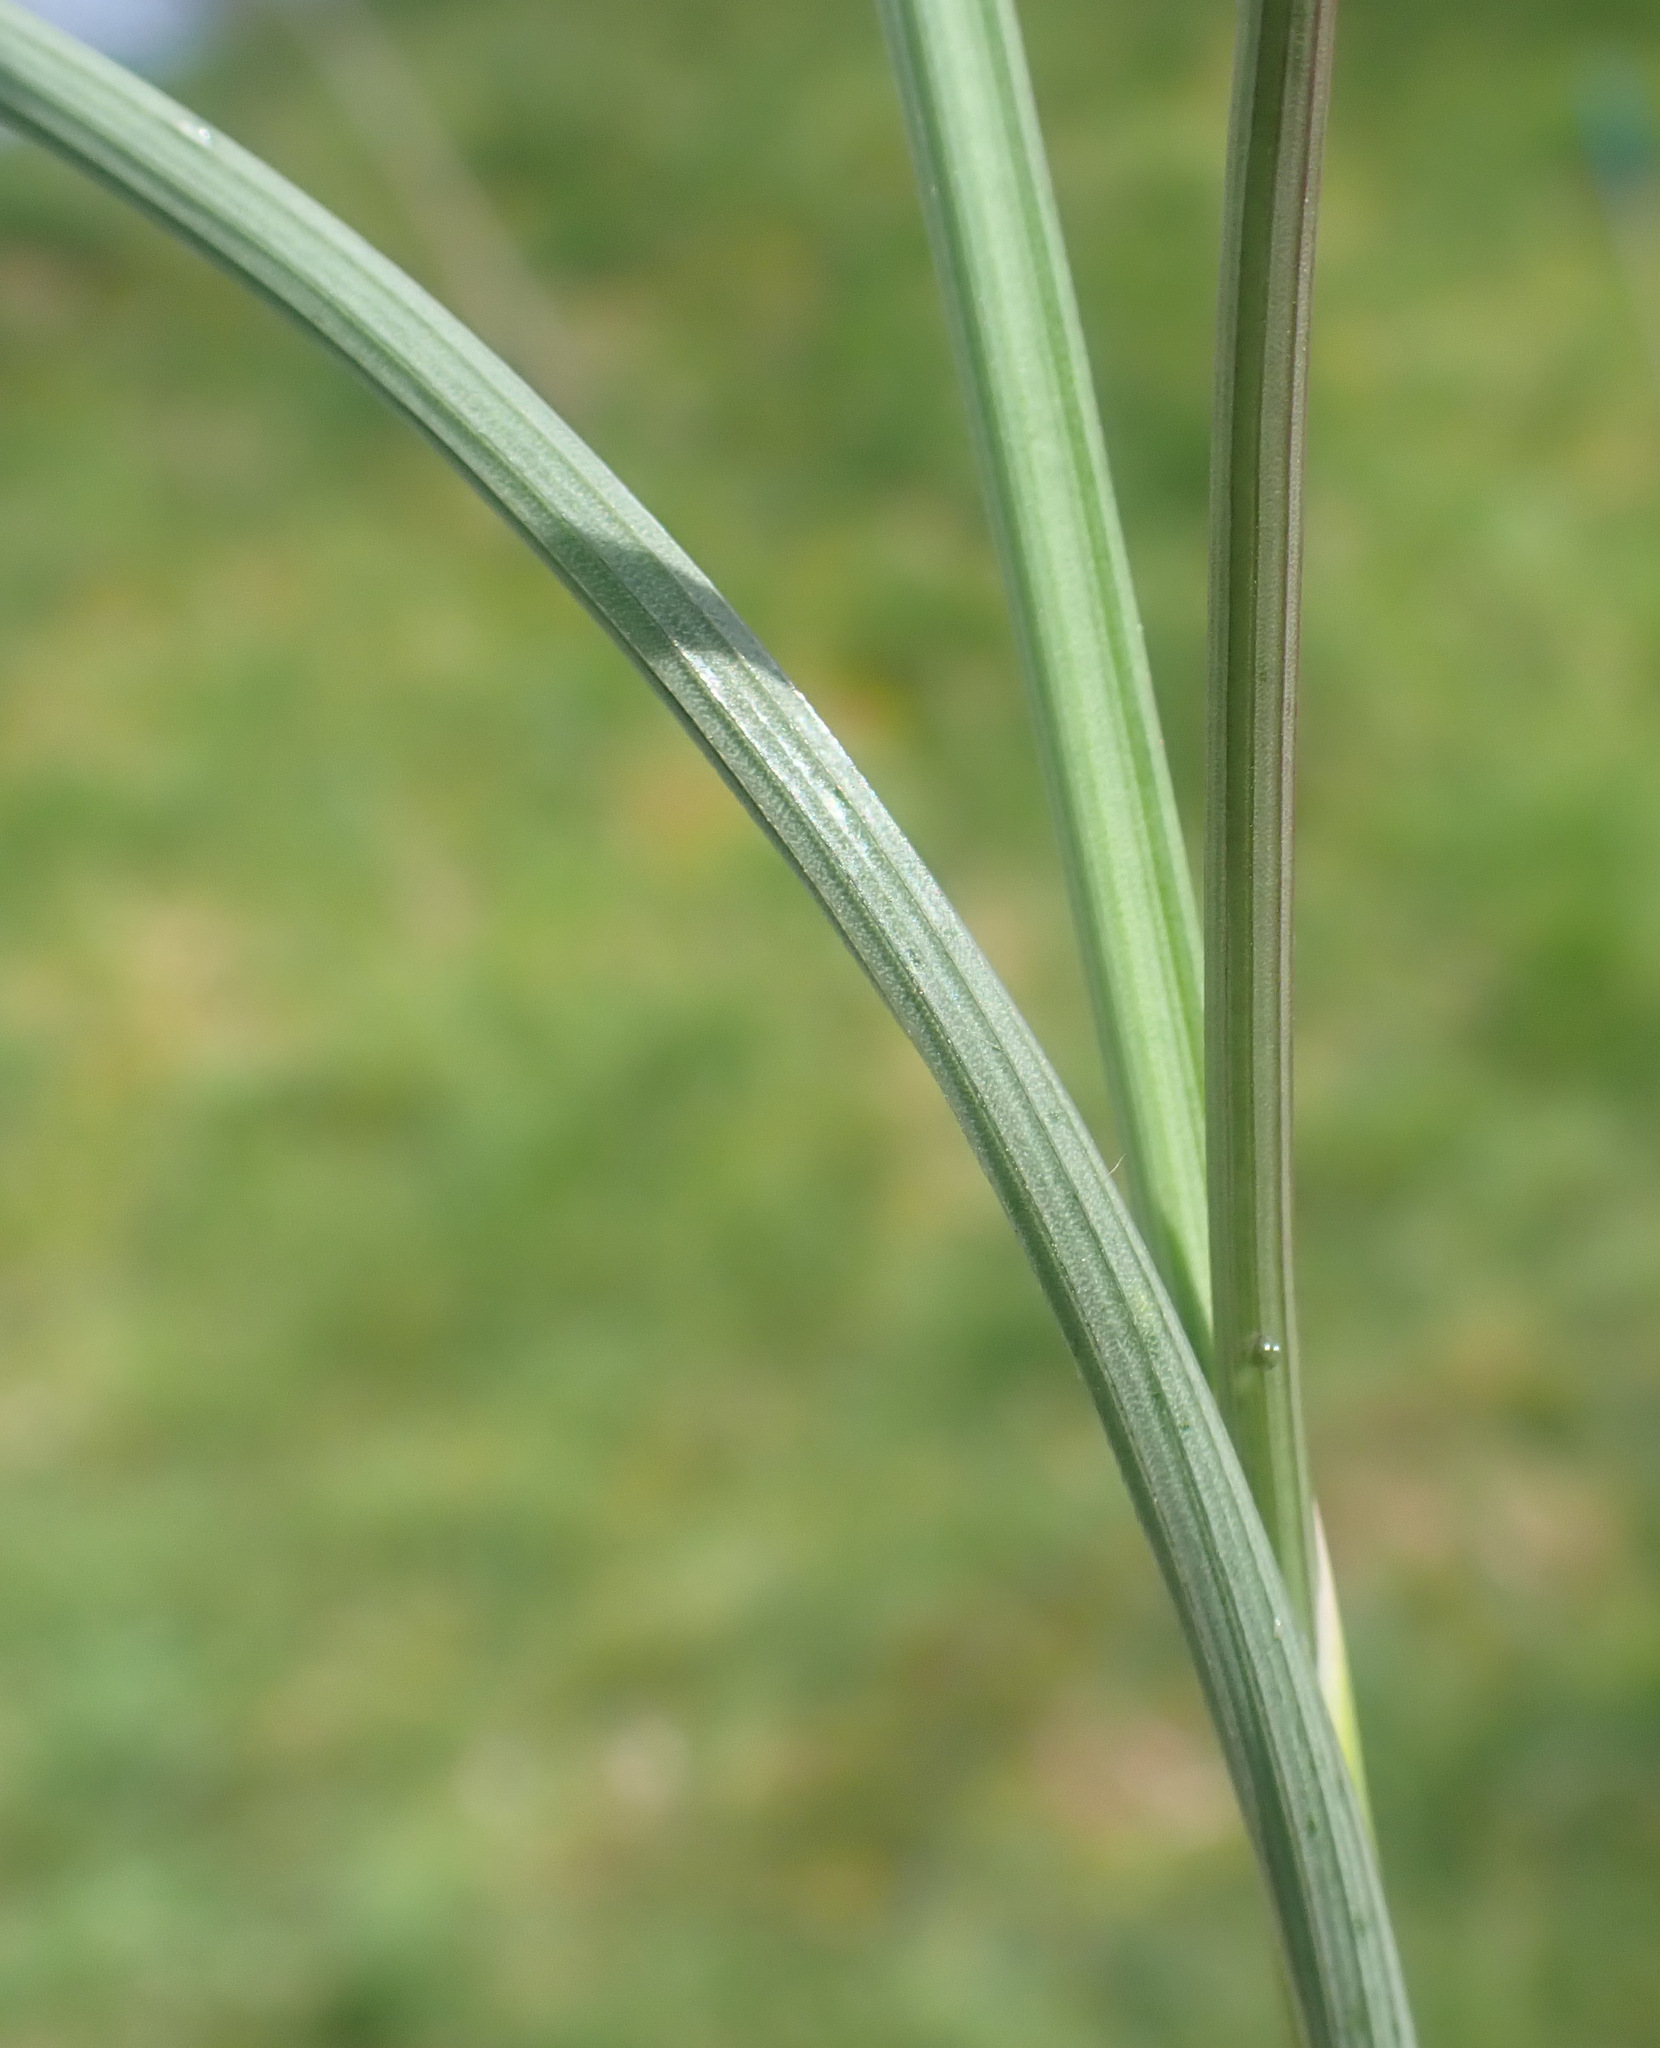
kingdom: Plantae
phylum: Tracheophyta
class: Liliopsida
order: Asparagales
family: Amaryllidaceae
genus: Allium
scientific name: Allium vineale
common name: Crow garlic
